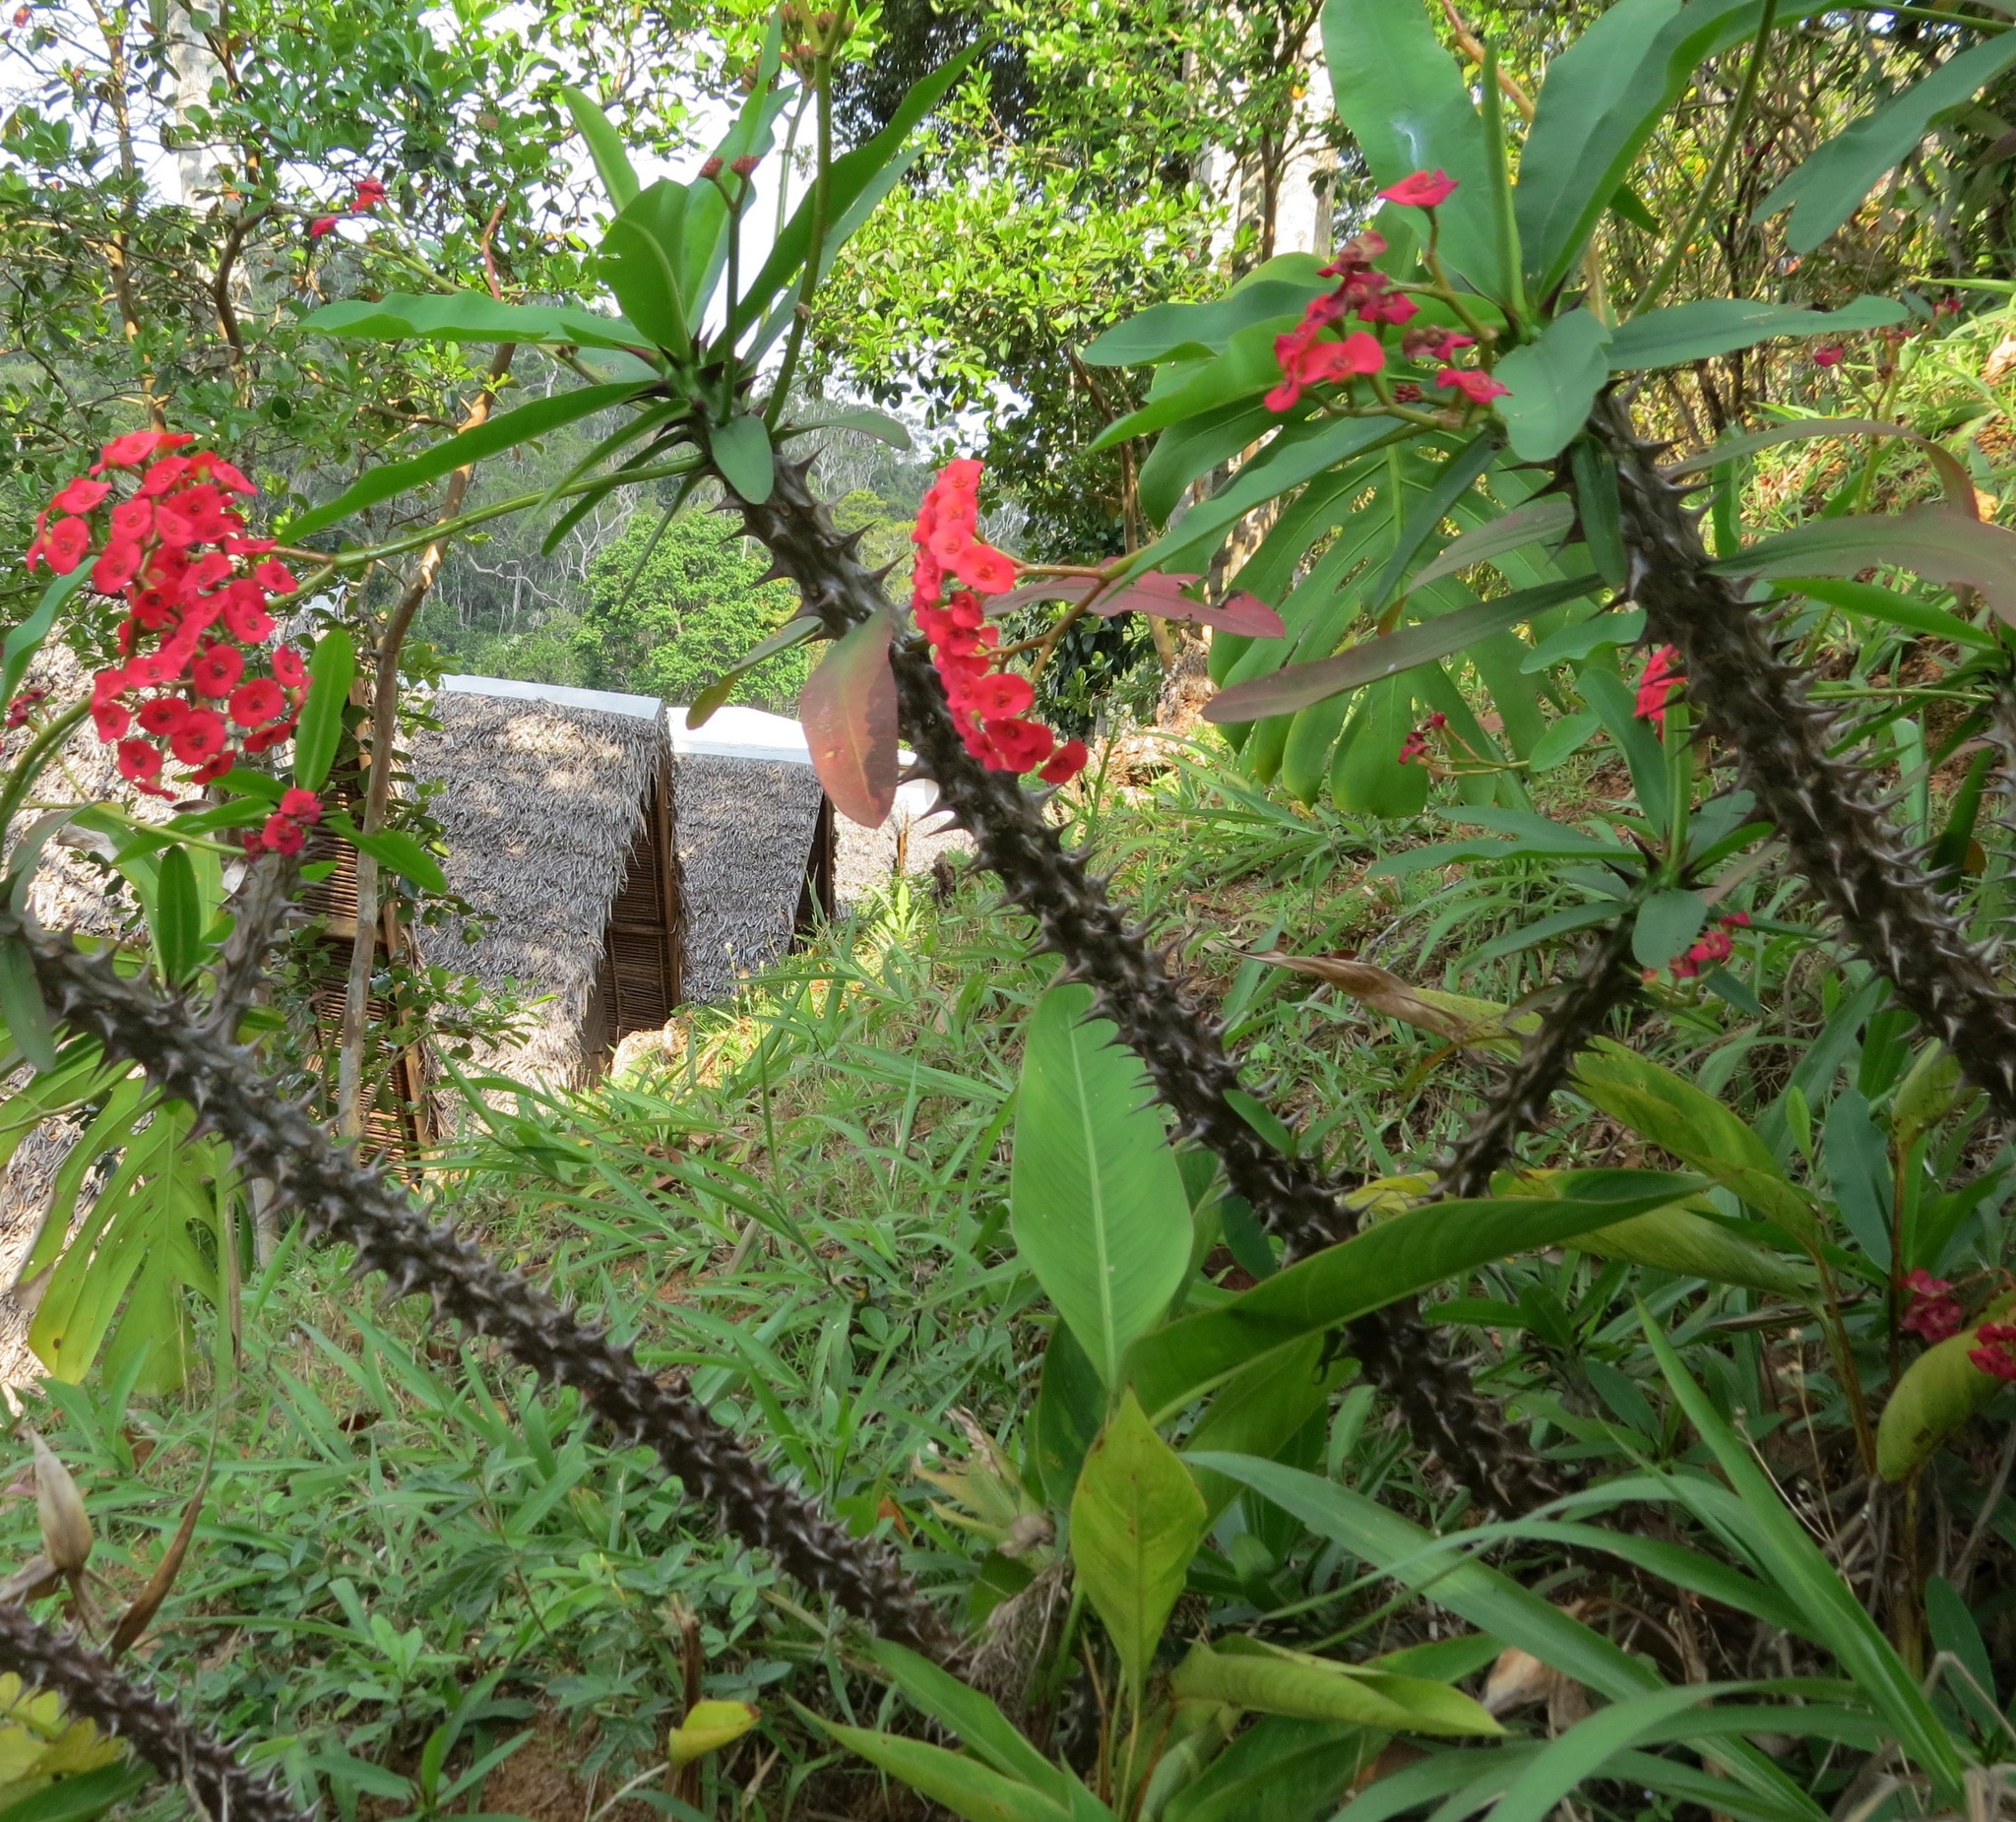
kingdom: Plantae
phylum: Tracheophyta
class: Magnoliopsida
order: Malpighiales
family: Euphorbiaceae
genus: Euphorbia
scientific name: Euphorbia milii
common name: Christplant
